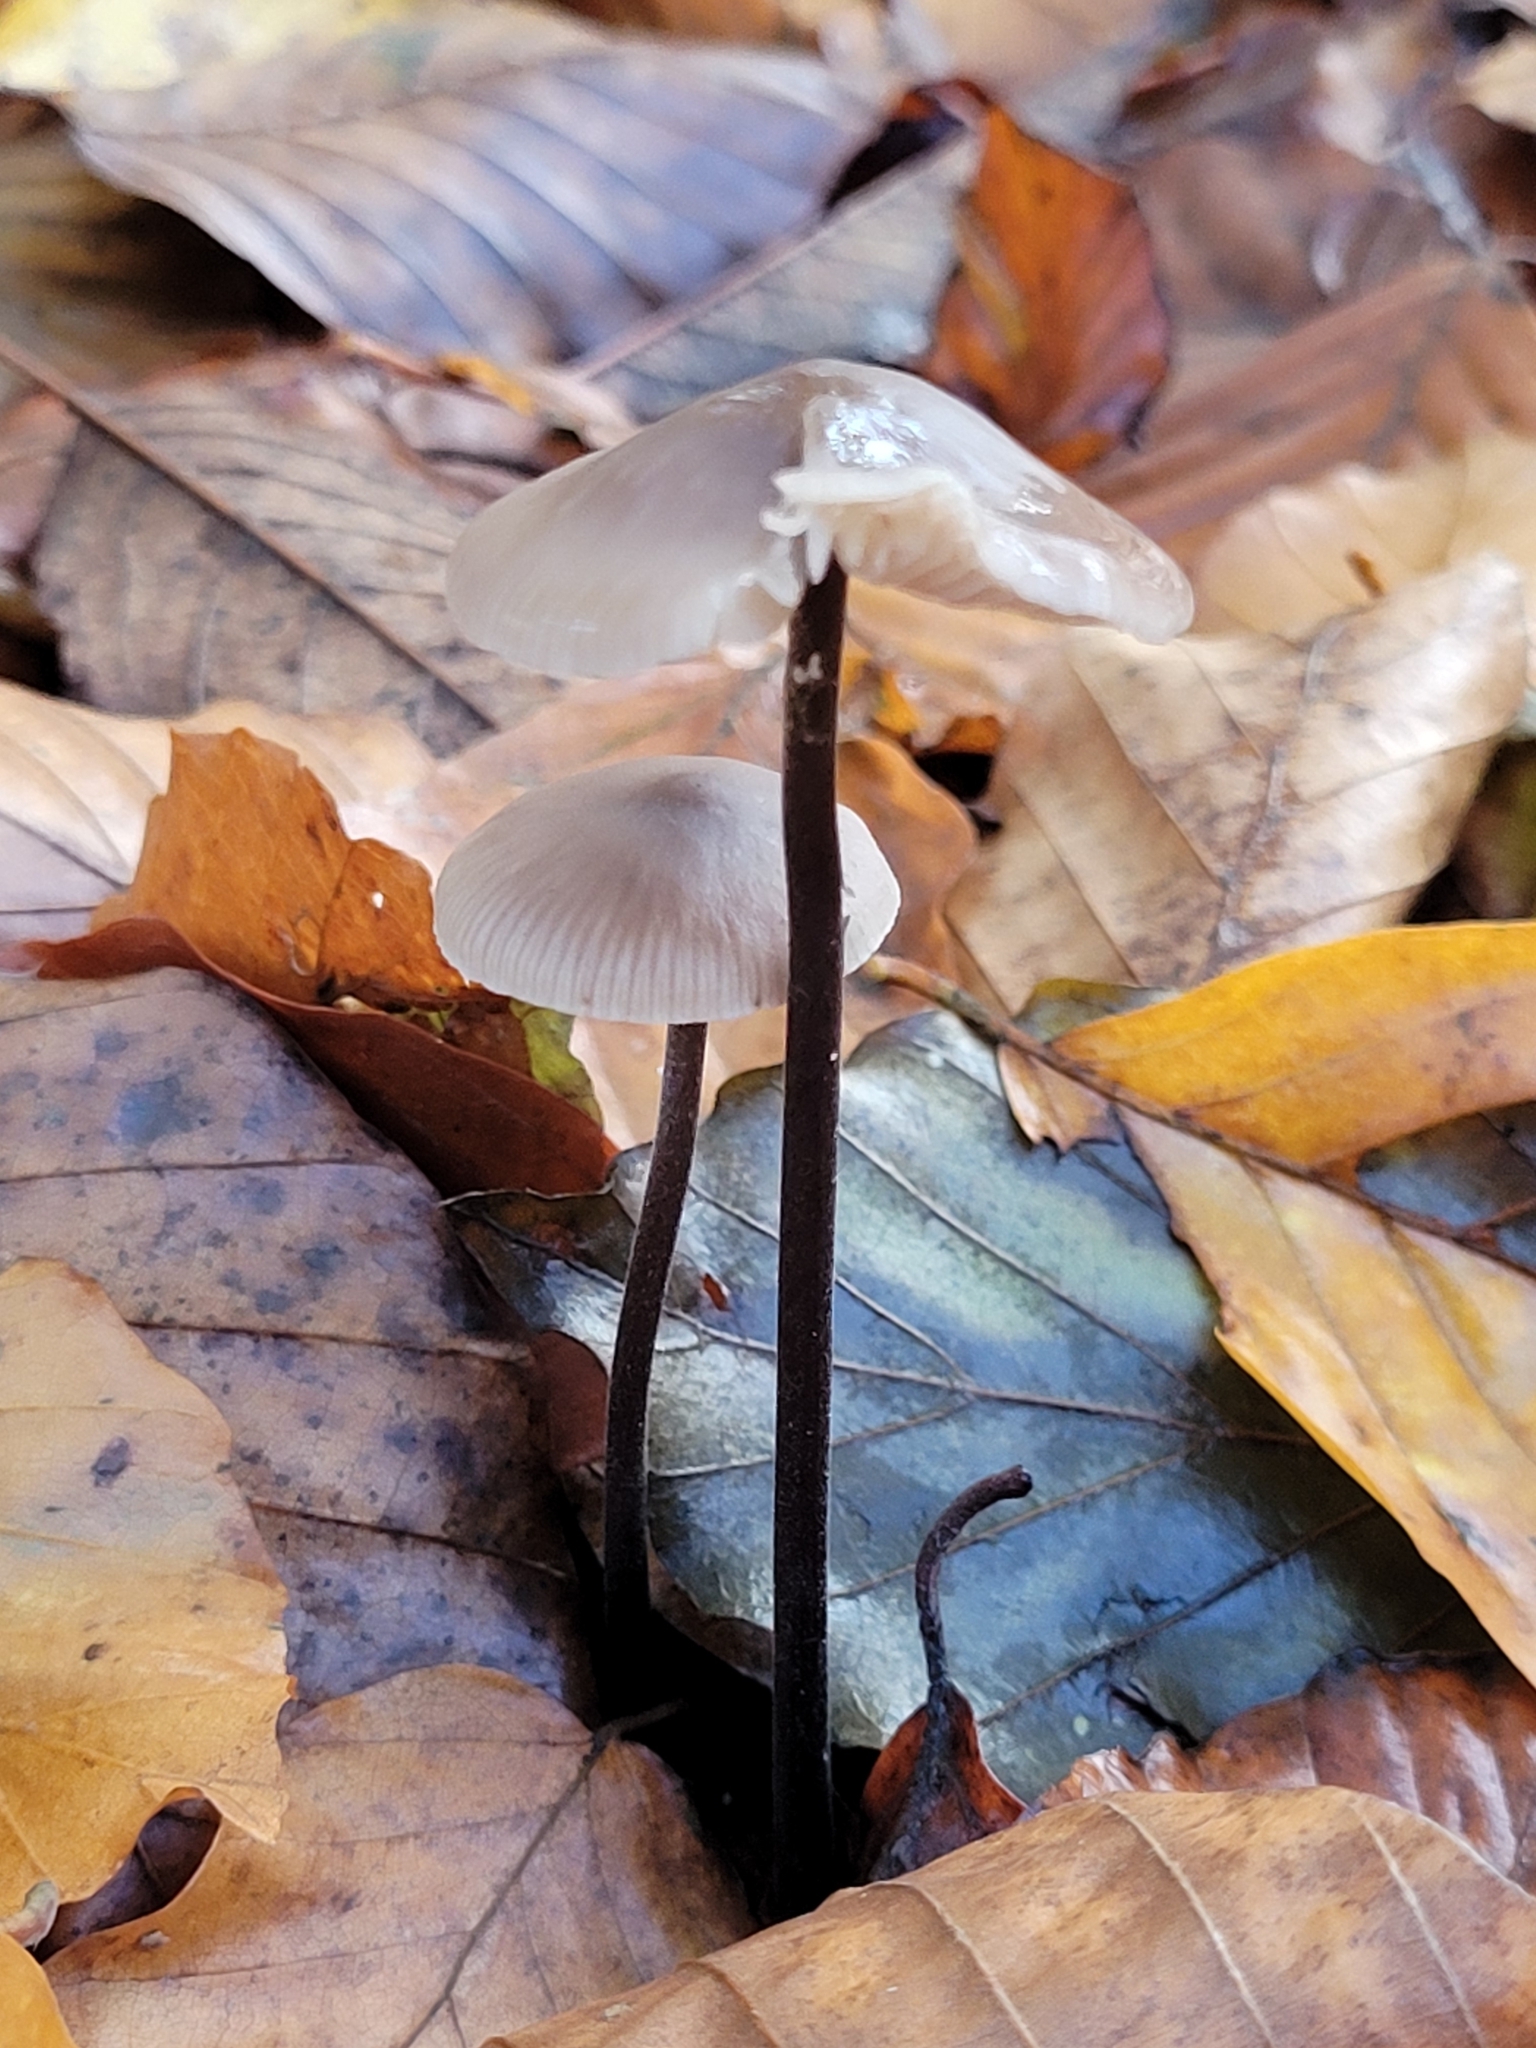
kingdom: Fungi
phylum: Basidiomycota
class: Agaricomycetes
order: Agaricales
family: Omphalotaceae
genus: Mycetinis
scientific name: Mycetinis alliaceus
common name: Garlic parachute
